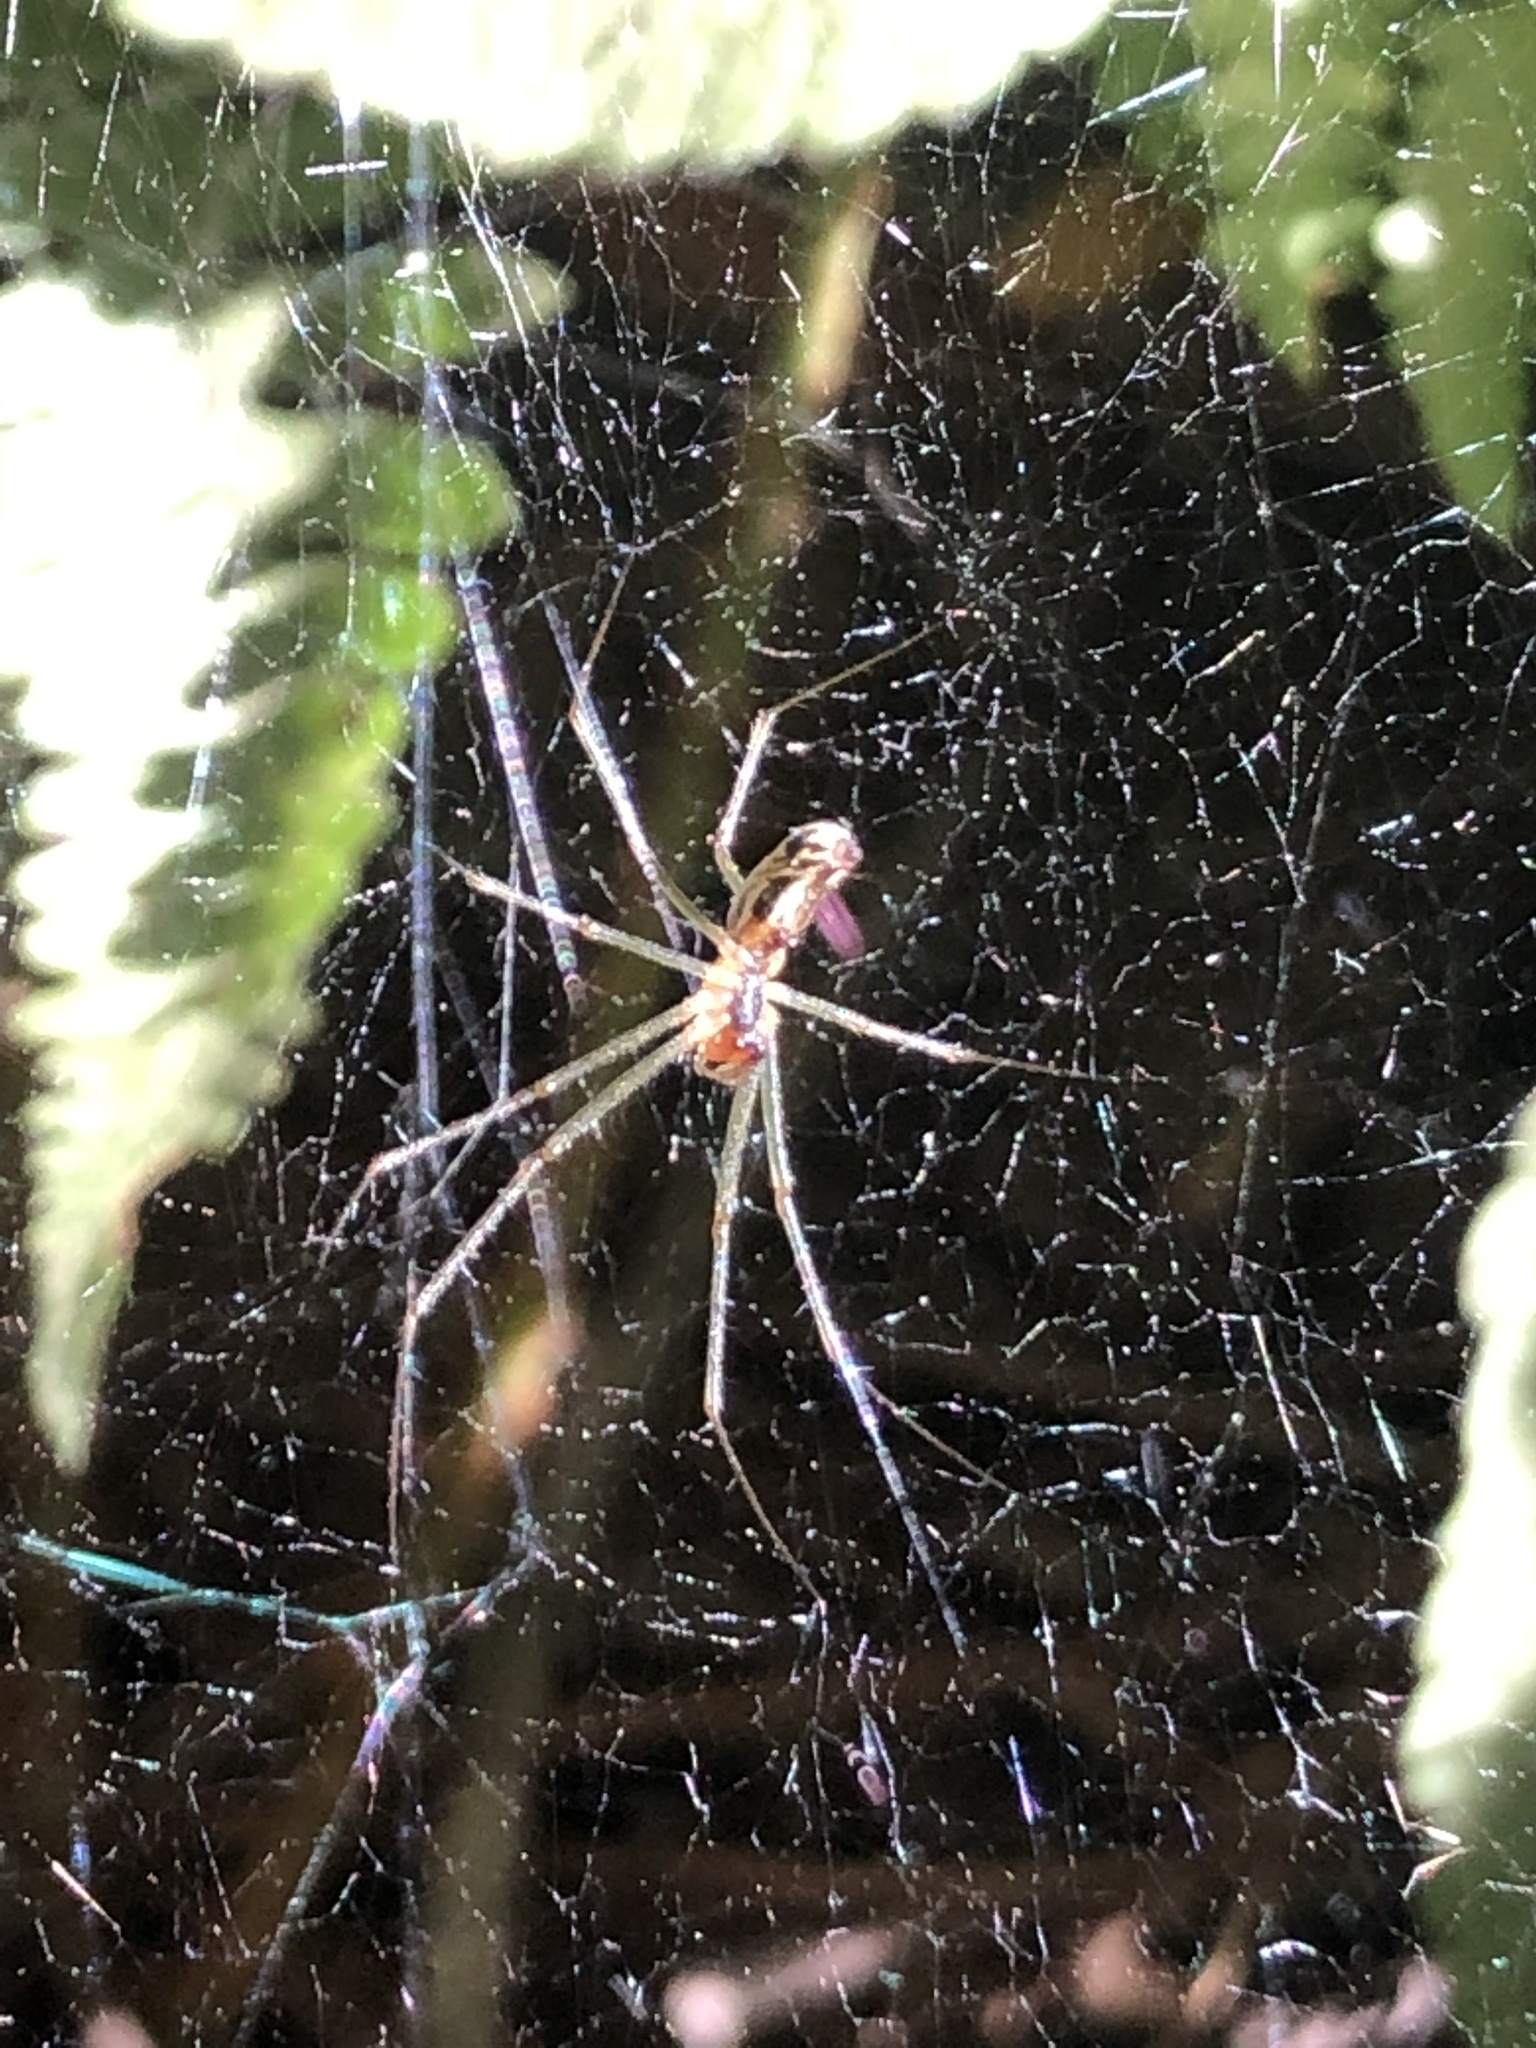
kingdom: Animalia
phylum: Arthropoda
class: Arachnida
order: Araneae
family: Linyphiidae
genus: Neriene
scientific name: Neriene litigiosa
